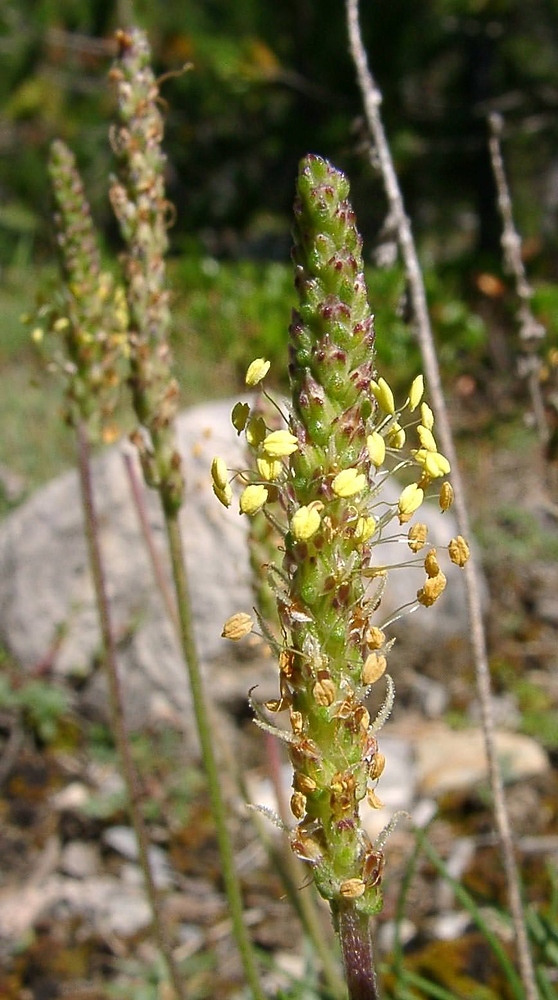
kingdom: Plantae
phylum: Tracheophyta
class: Magnoliopsida
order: Lamiales
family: Plantaginaceae
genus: Plantago
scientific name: Plantago maritima
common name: Sea plantain
